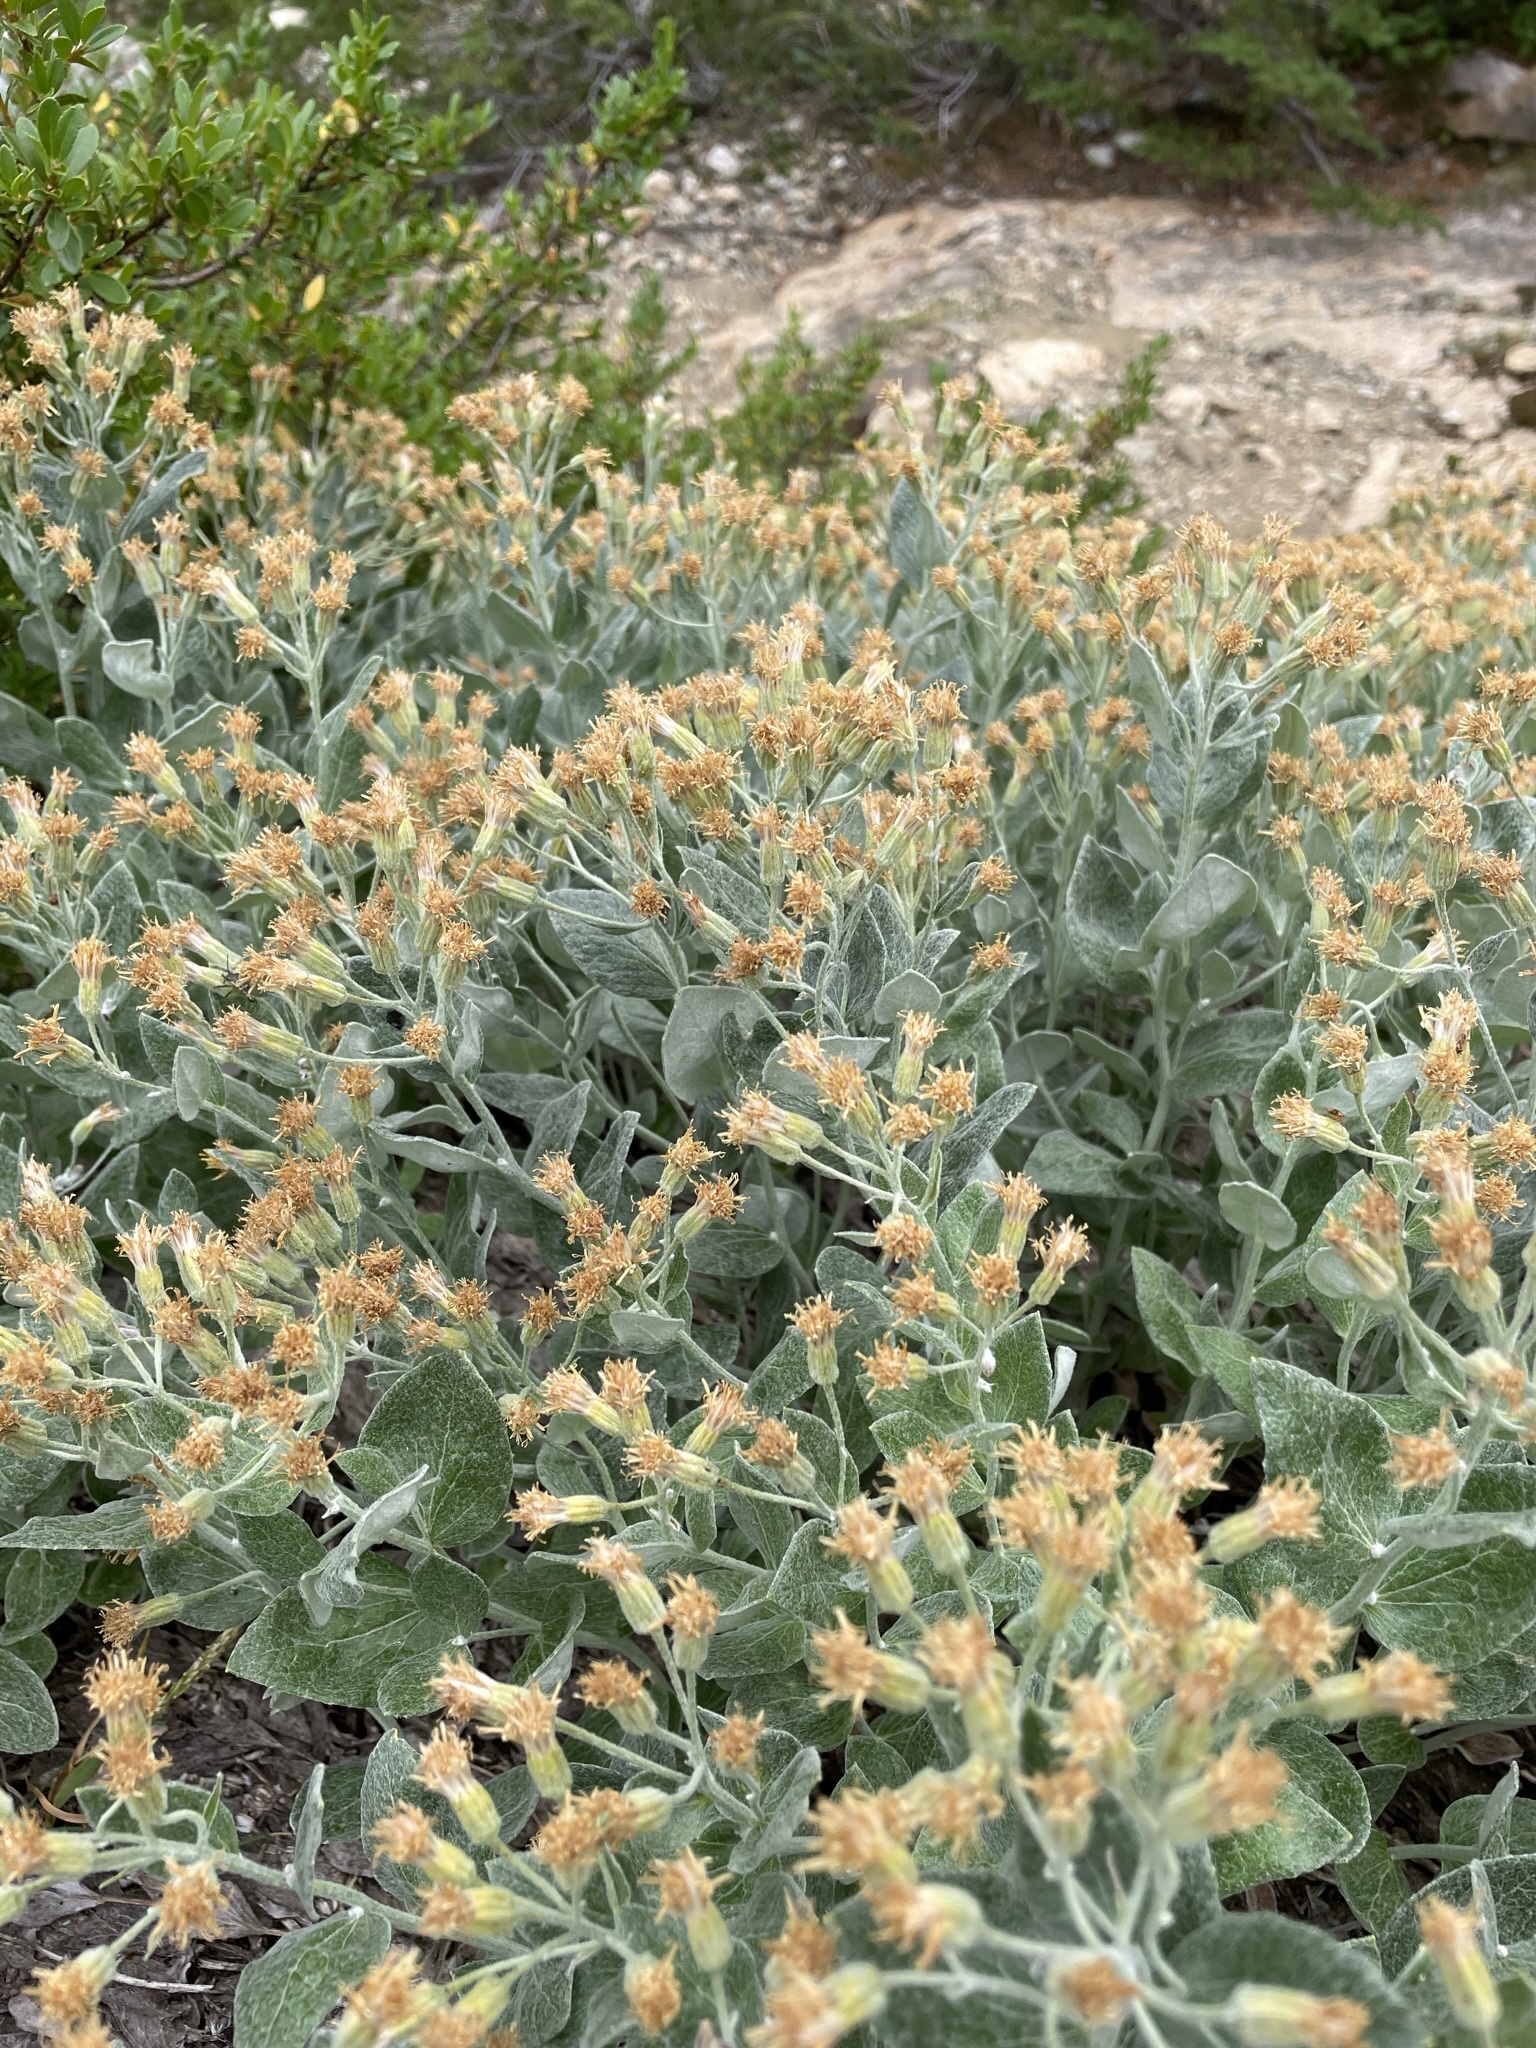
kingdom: Plantae
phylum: Tracheophyta
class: Magnoliopsida
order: Asterales
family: Asteraceae
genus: Luina
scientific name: Luina hypoleuca
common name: Little-leaved luina
